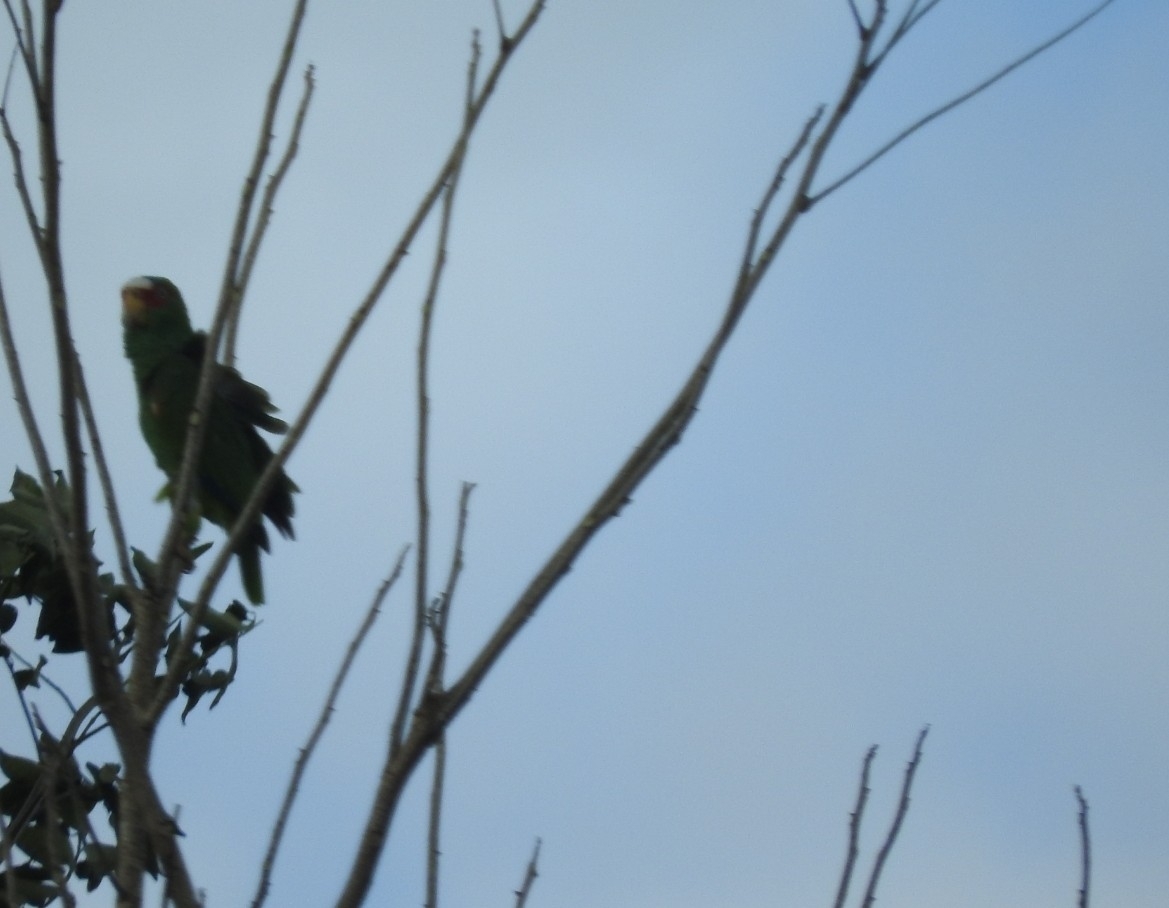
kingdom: Animalia
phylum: Chordata
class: Aves
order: Psittaciformes
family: Psittacidae
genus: Amazona
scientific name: Amazona albifrons
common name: White-fronted amazon
